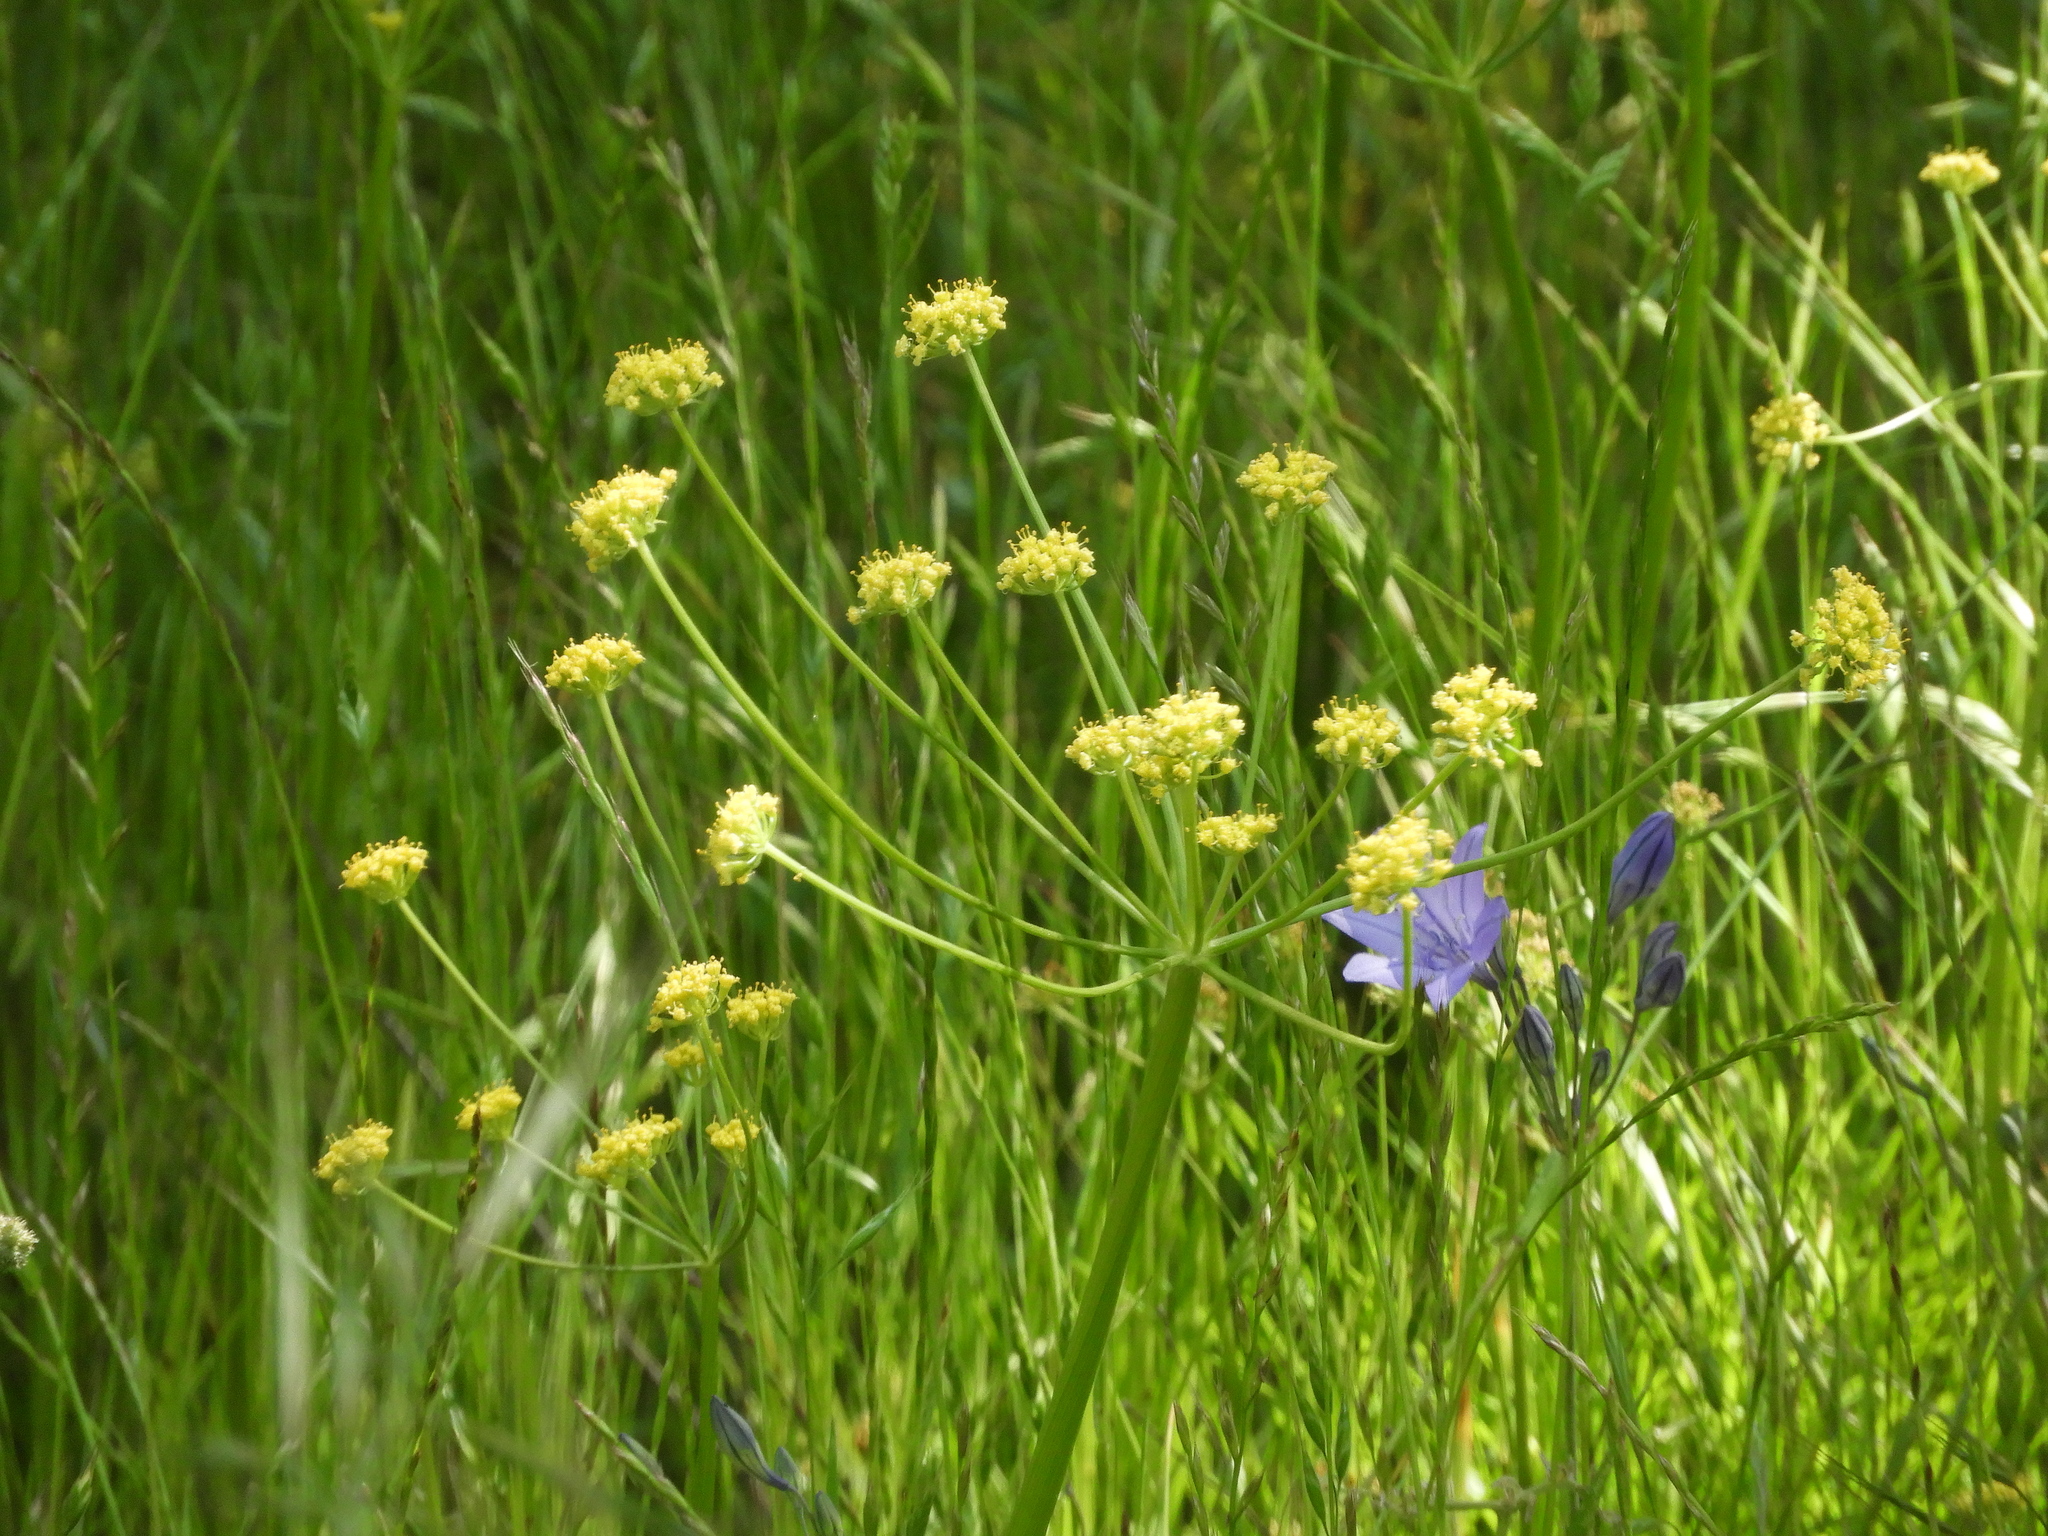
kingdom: Plantae
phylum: Tracheophyta
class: Magnoliopsida
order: Apiales
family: Apiaceae
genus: Lomatium
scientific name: Lomatium nudicaule
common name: Pestle lomatium
